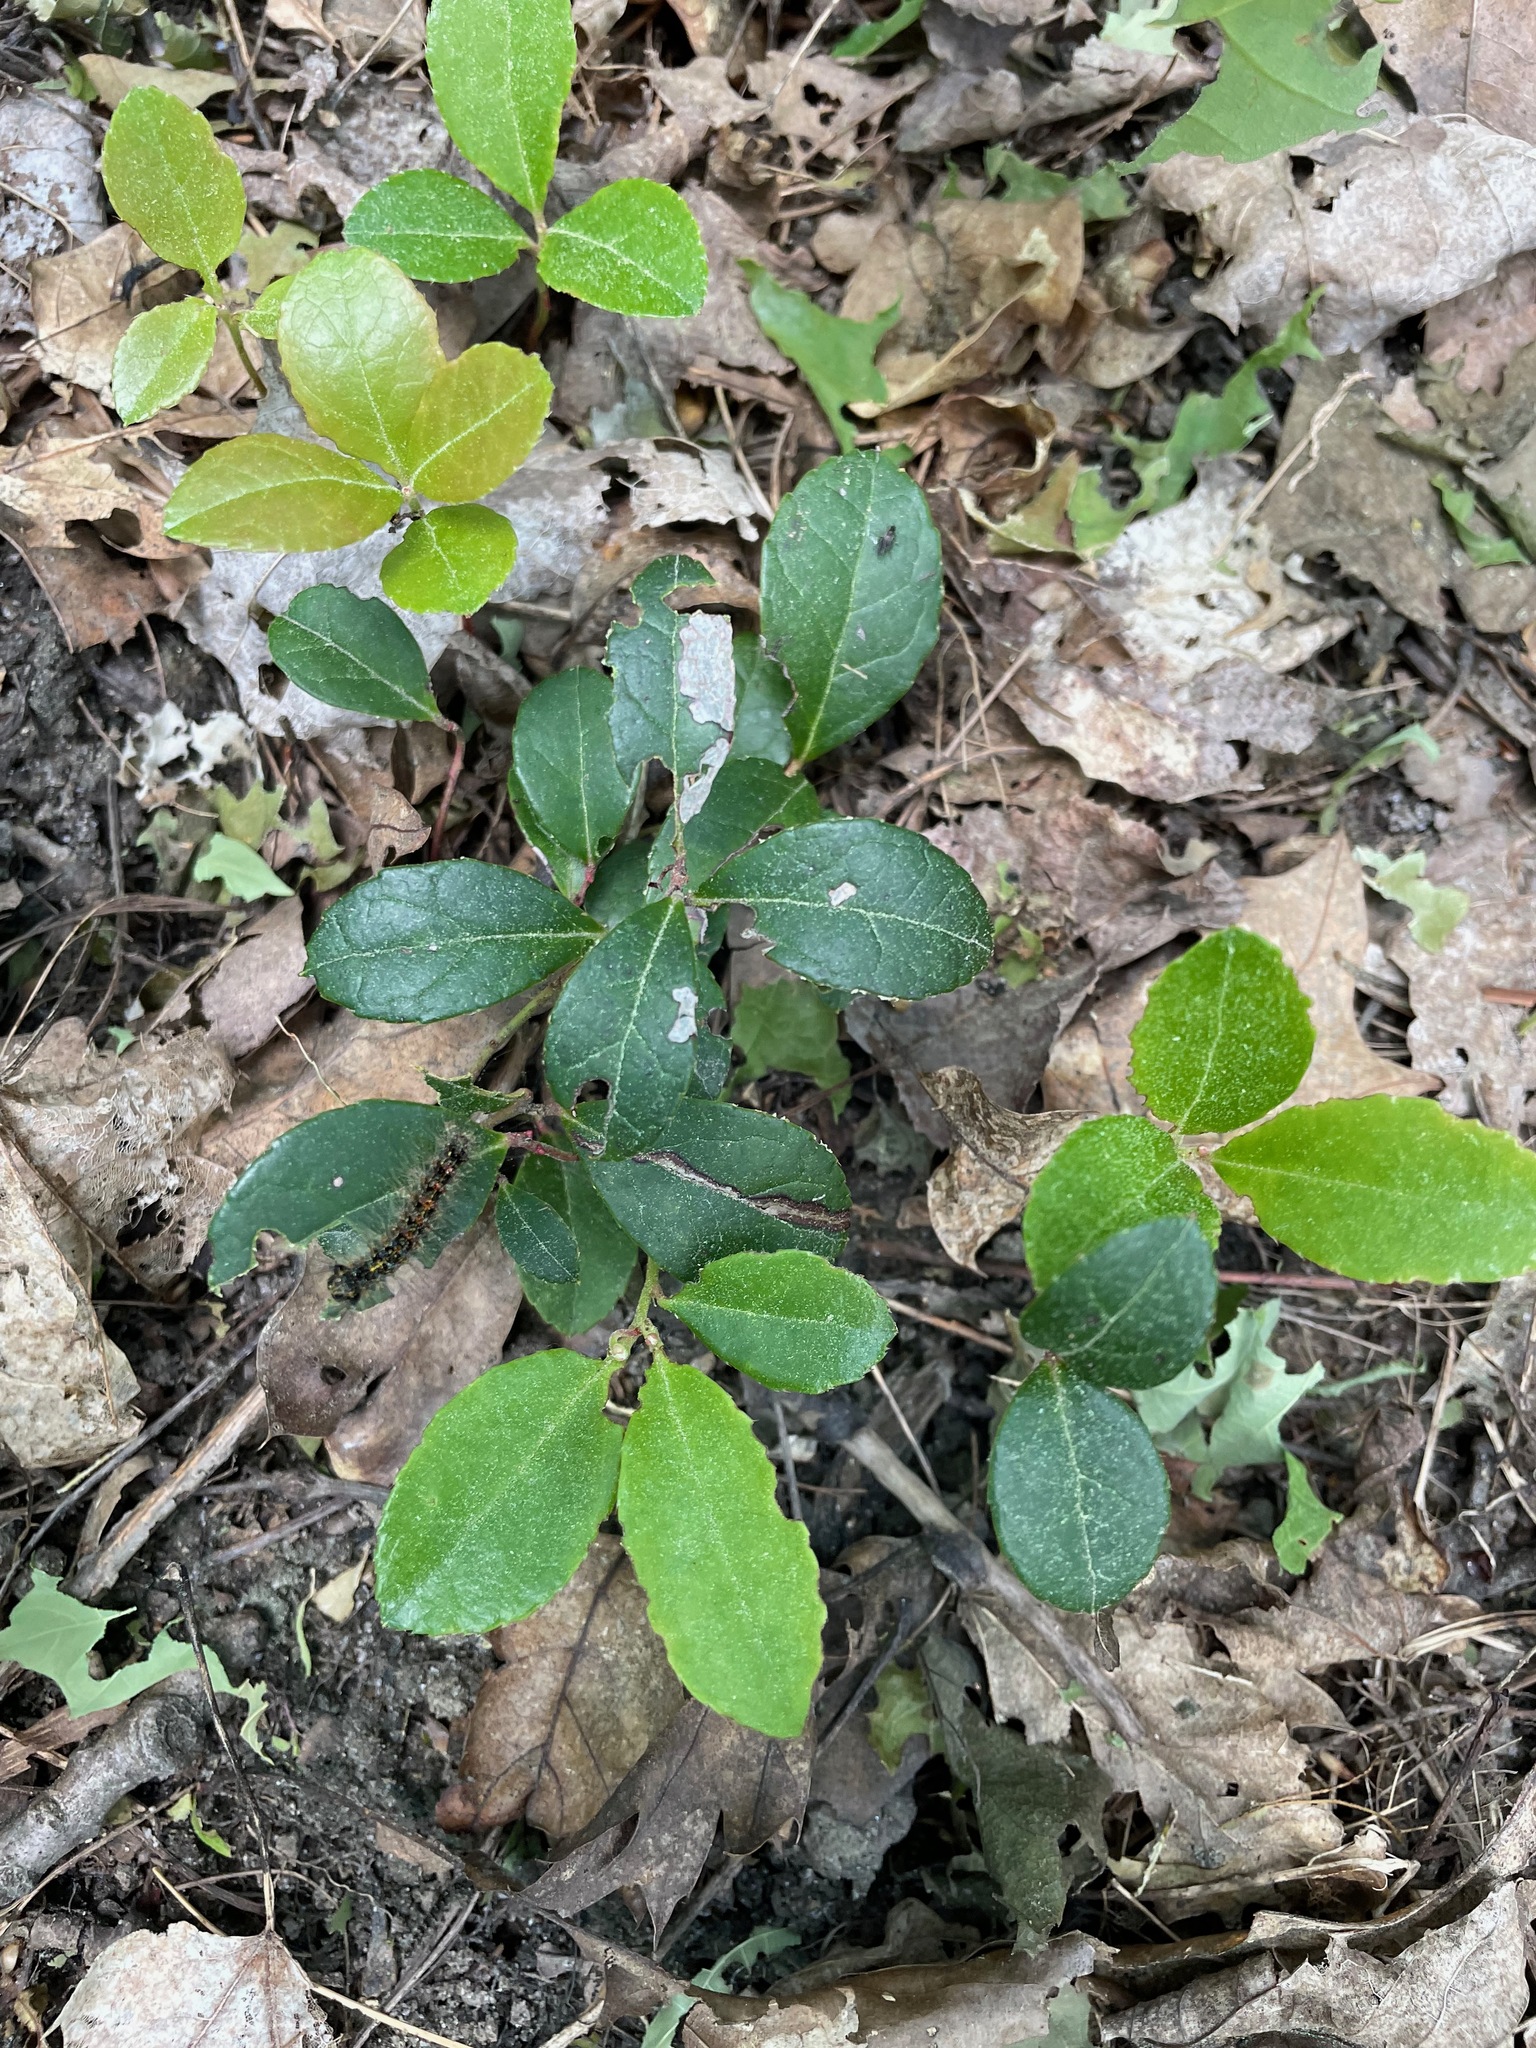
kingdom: Plantae
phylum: Tracheophyta
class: Magnoliopsida
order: Ericales
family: Ericaceae
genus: Gaultheria
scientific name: Gaultheria procumbens
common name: Checkerberry
